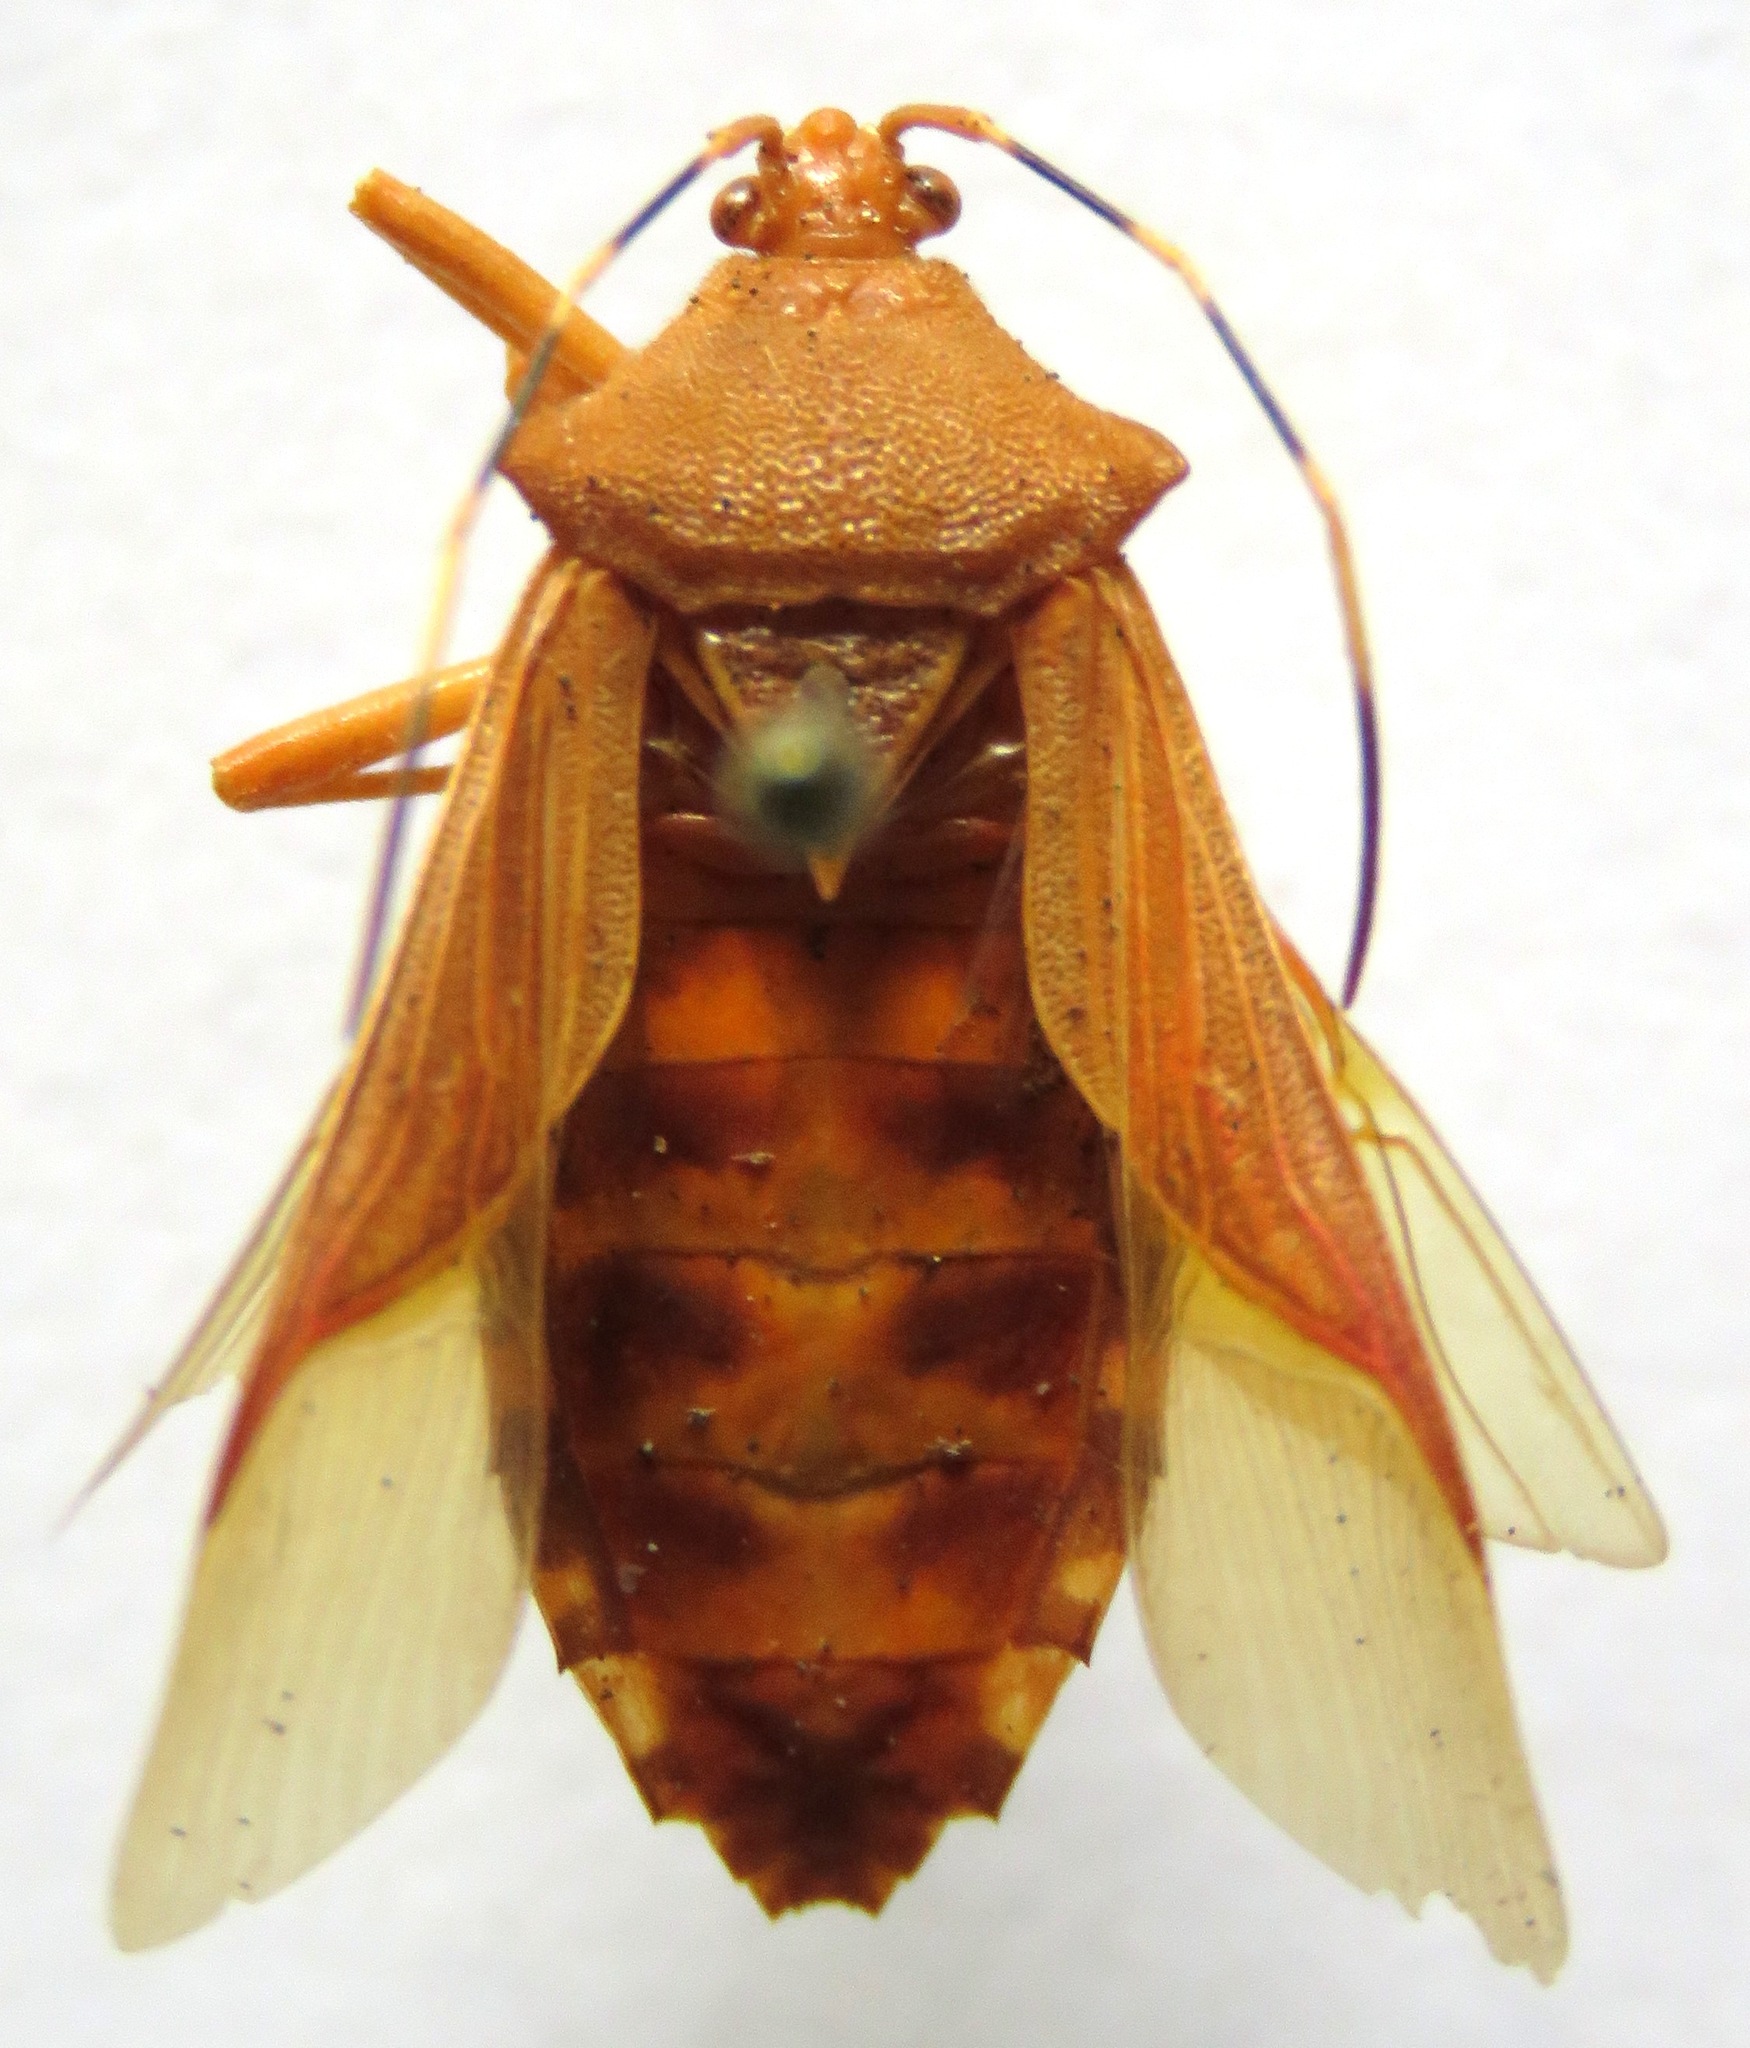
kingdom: Animalia
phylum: Arthropoda
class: Insecta
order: Hemiptera
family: Coreidae
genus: Nematopus
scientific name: Nematopus nigroannulatus
